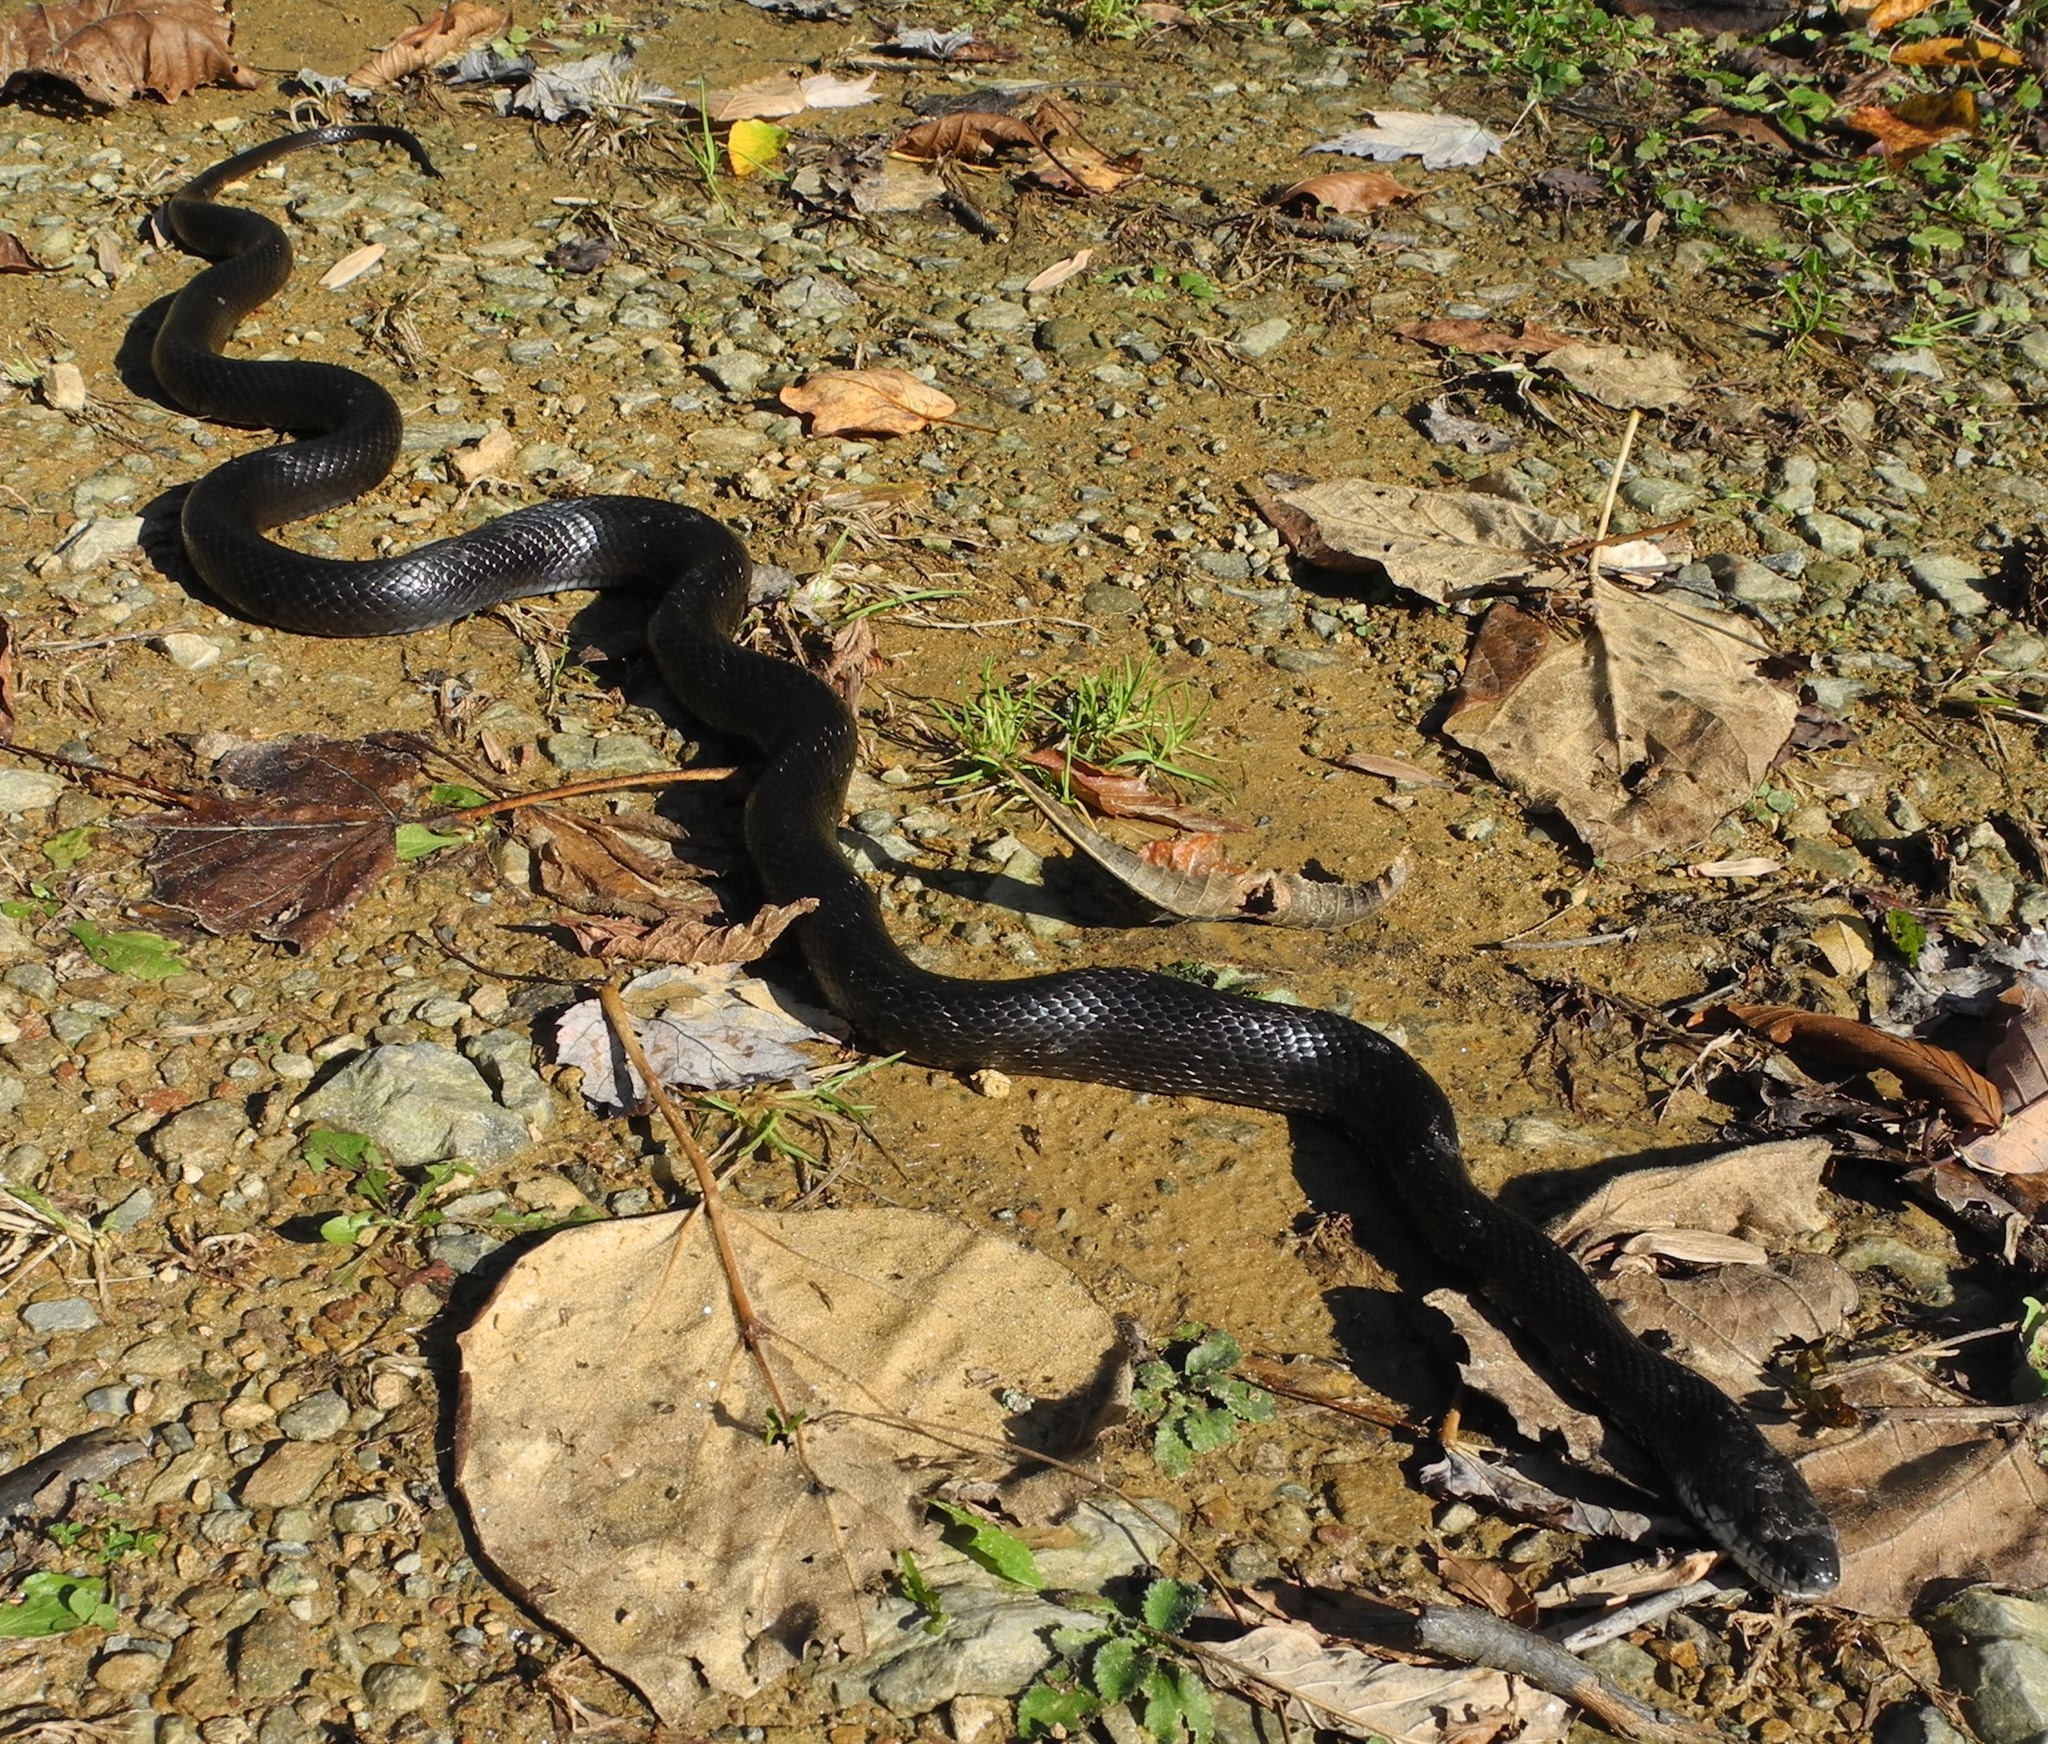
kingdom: Animalia
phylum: Chordata
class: Squamata
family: Colubridae
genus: Pantherophis
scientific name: Pantherophis alleghaniensis
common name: Eastern rat snake
